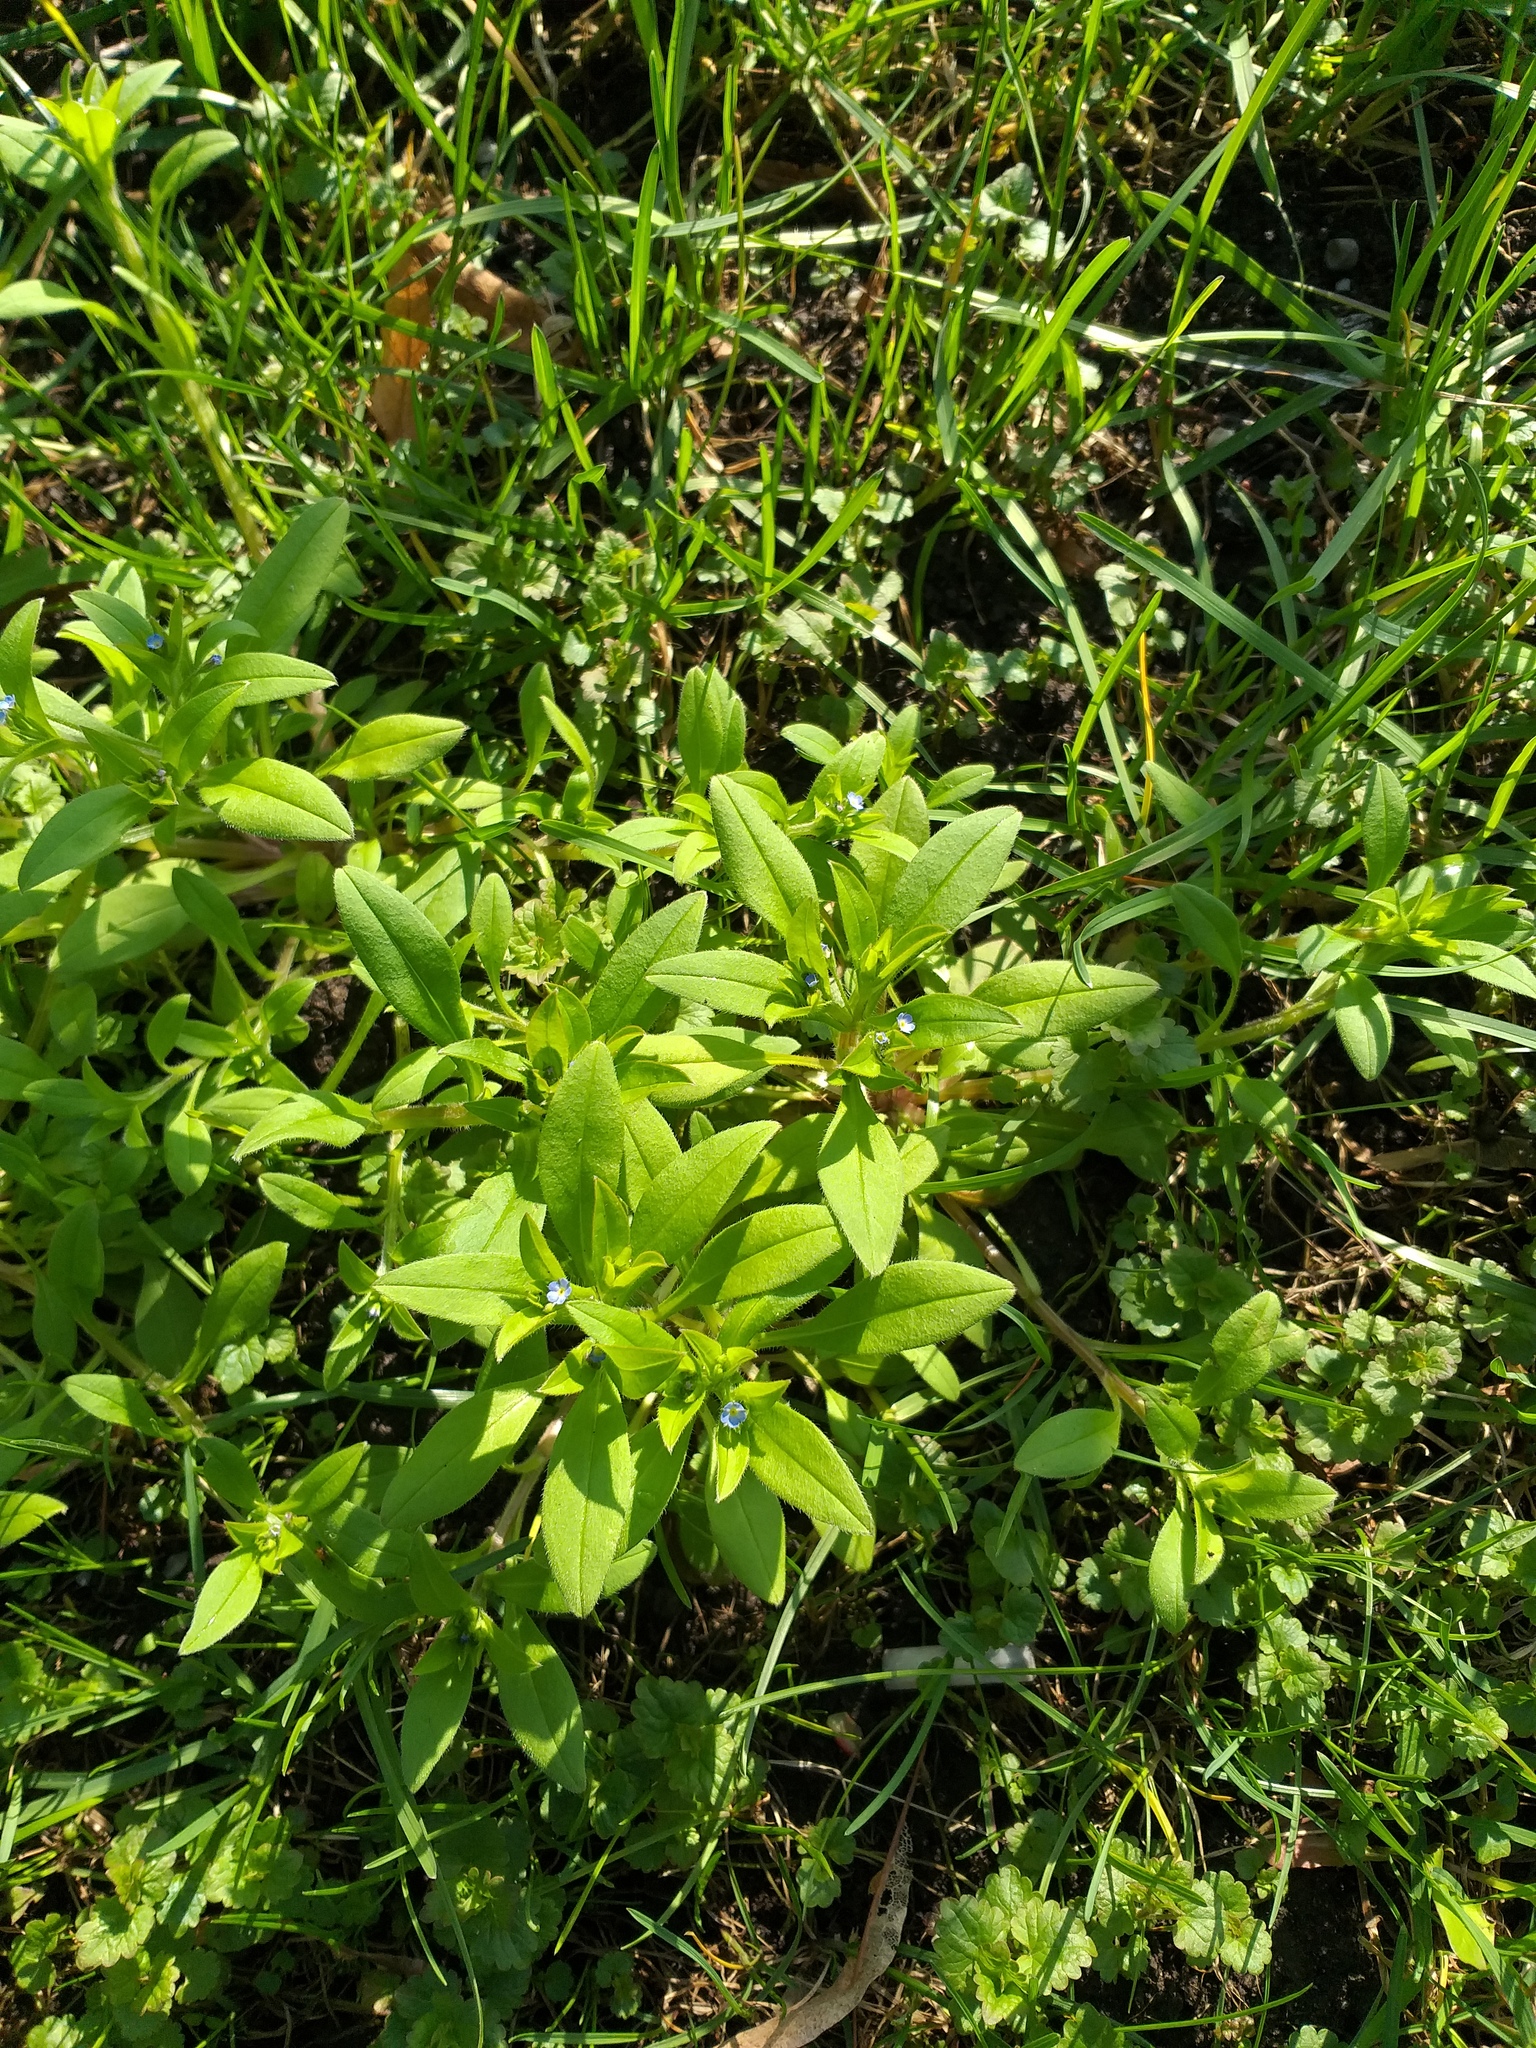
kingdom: Plantae
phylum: Tracheophyta
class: Magnoliopsida
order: Boraginales
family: Boraginaceae
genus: Myosotis
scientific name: Myosotis sparsiflora
